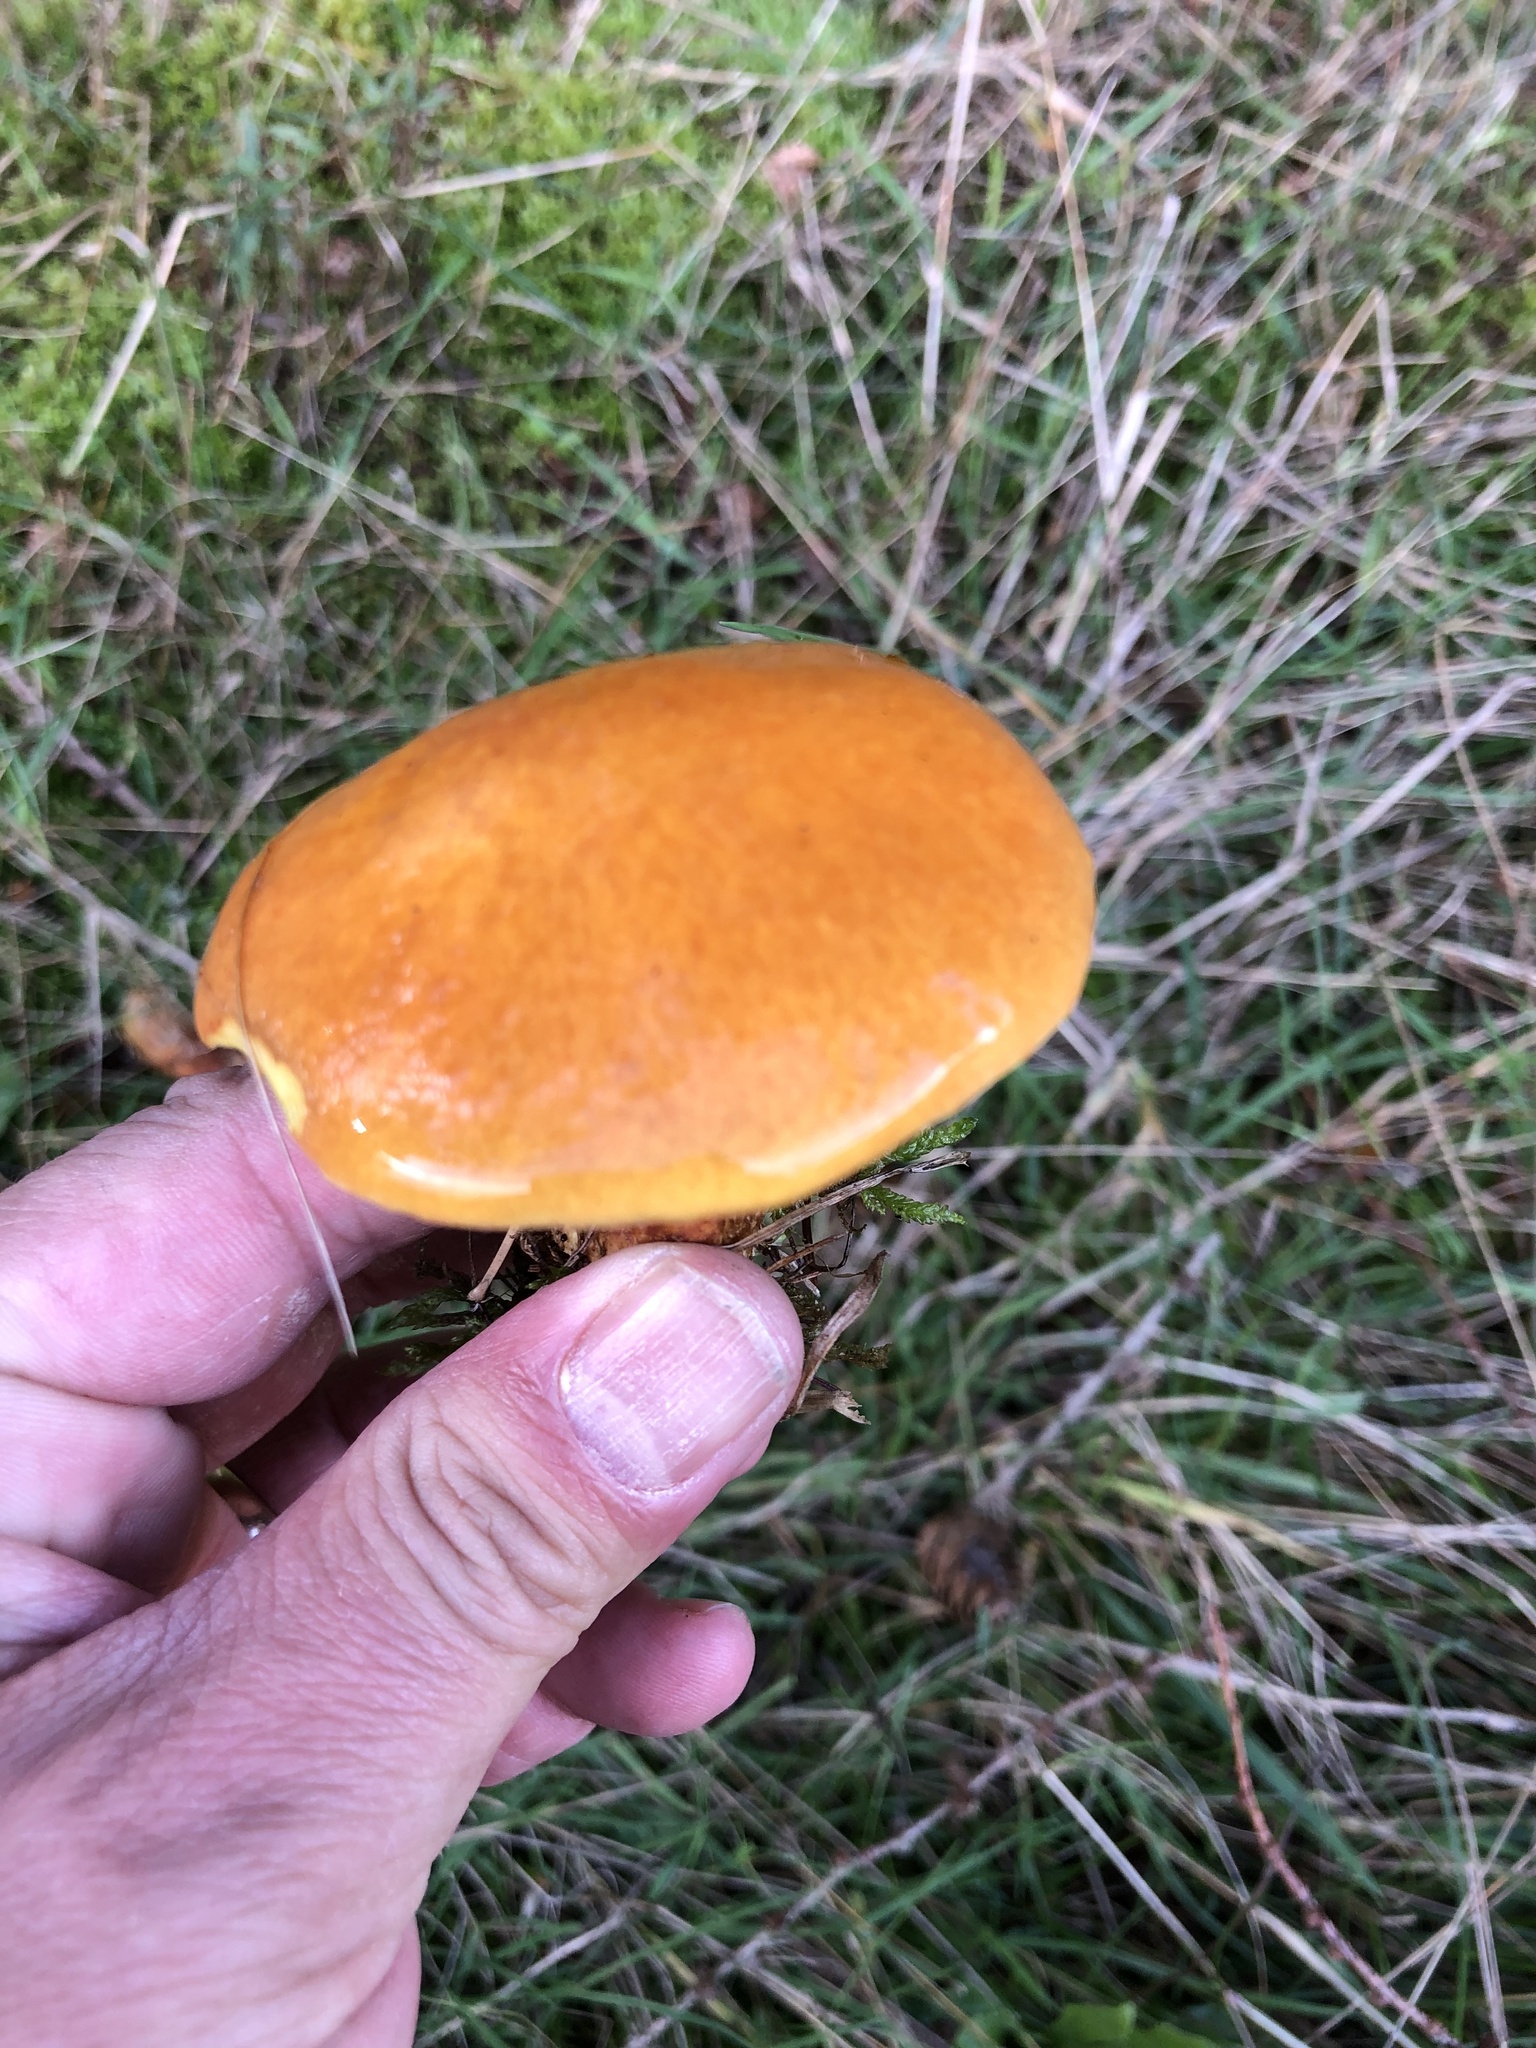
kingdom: Fungi
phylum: Basidiomycota
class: Agaricomycetes
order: Boletales
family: Suillaceae
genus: Suillus
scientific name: Suillus grevillei
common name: Larch bolete
